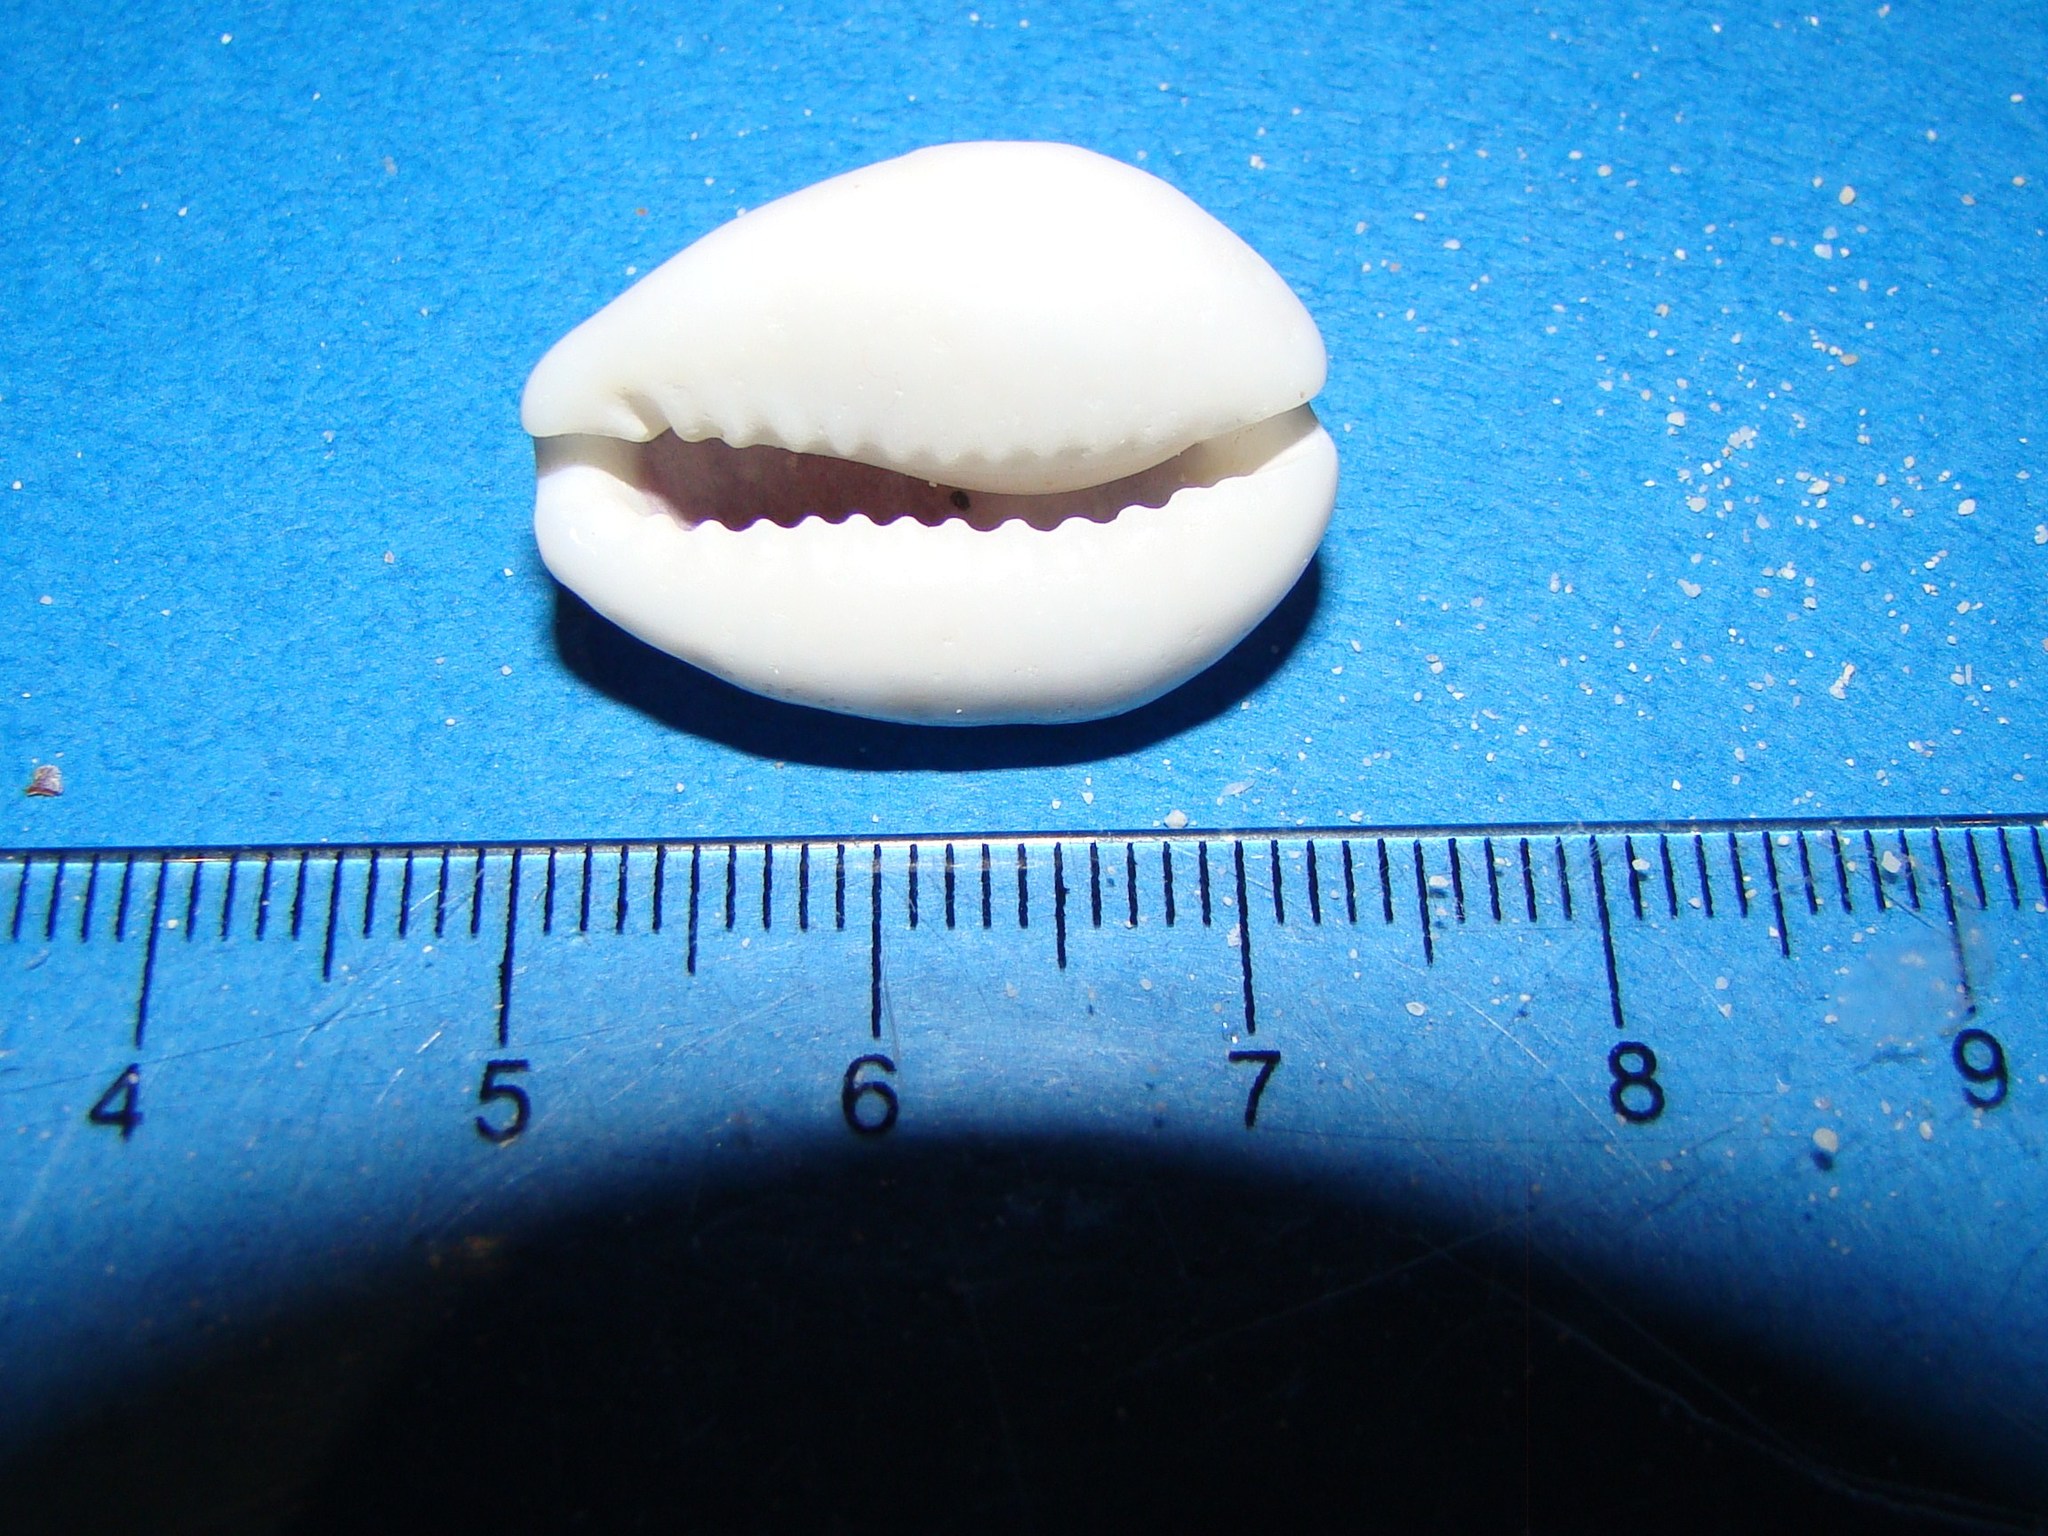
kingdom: Animalia
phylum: Mollusca
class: Gastropoda
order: Littorinimorpha
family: Cypraeidae
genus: Monetaria
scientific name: Monetaria moneta
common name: Money cowrie
